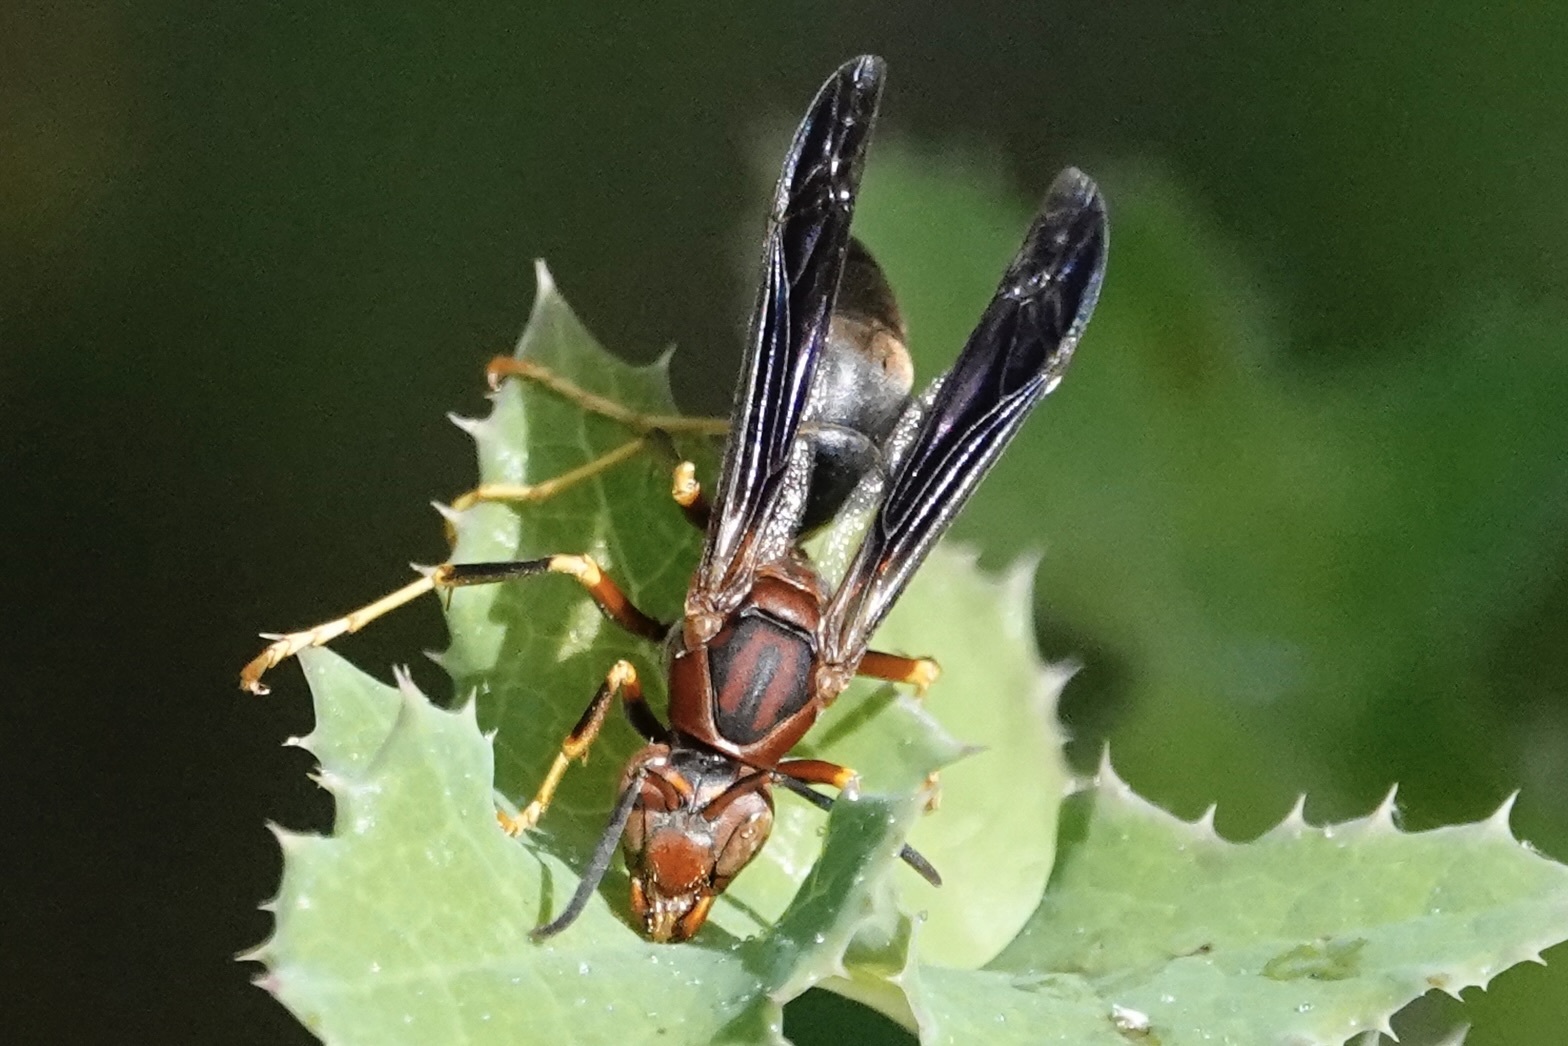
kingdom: Animalia
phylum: Arthropoda
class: Insecta
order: Hymenoptera
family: Eumenidae
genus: Polistes
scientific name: Polistes metricus
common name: Metric paper wasp
